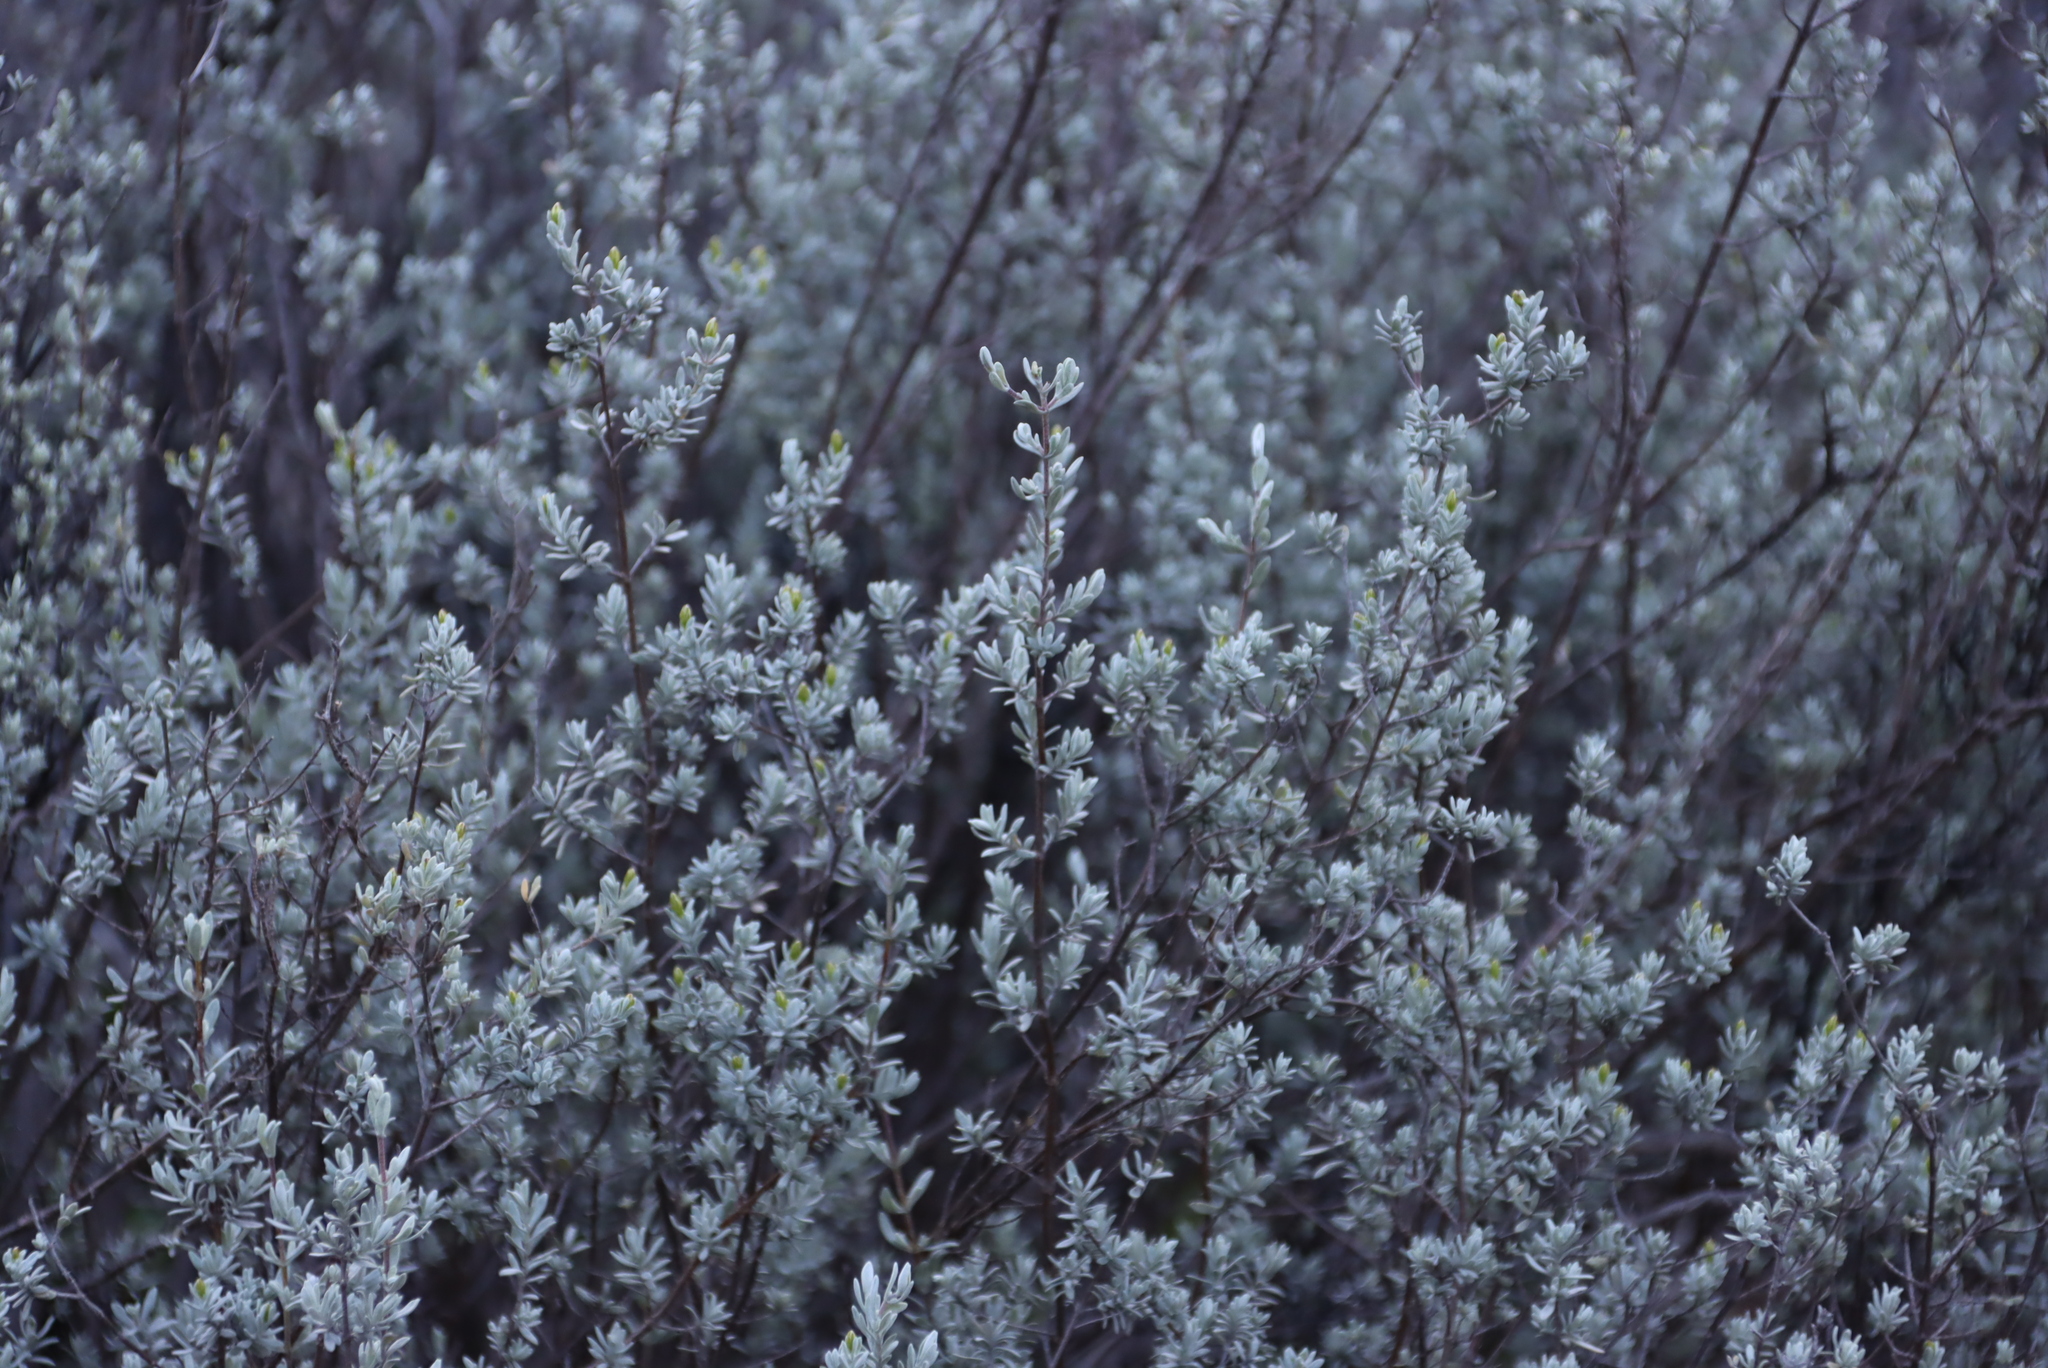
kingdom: Plantae
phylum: Tracheophyta
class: Magnoliopsida
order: Asterales
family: Asteraceae
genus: Pteronia
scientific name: Pteronia incana
